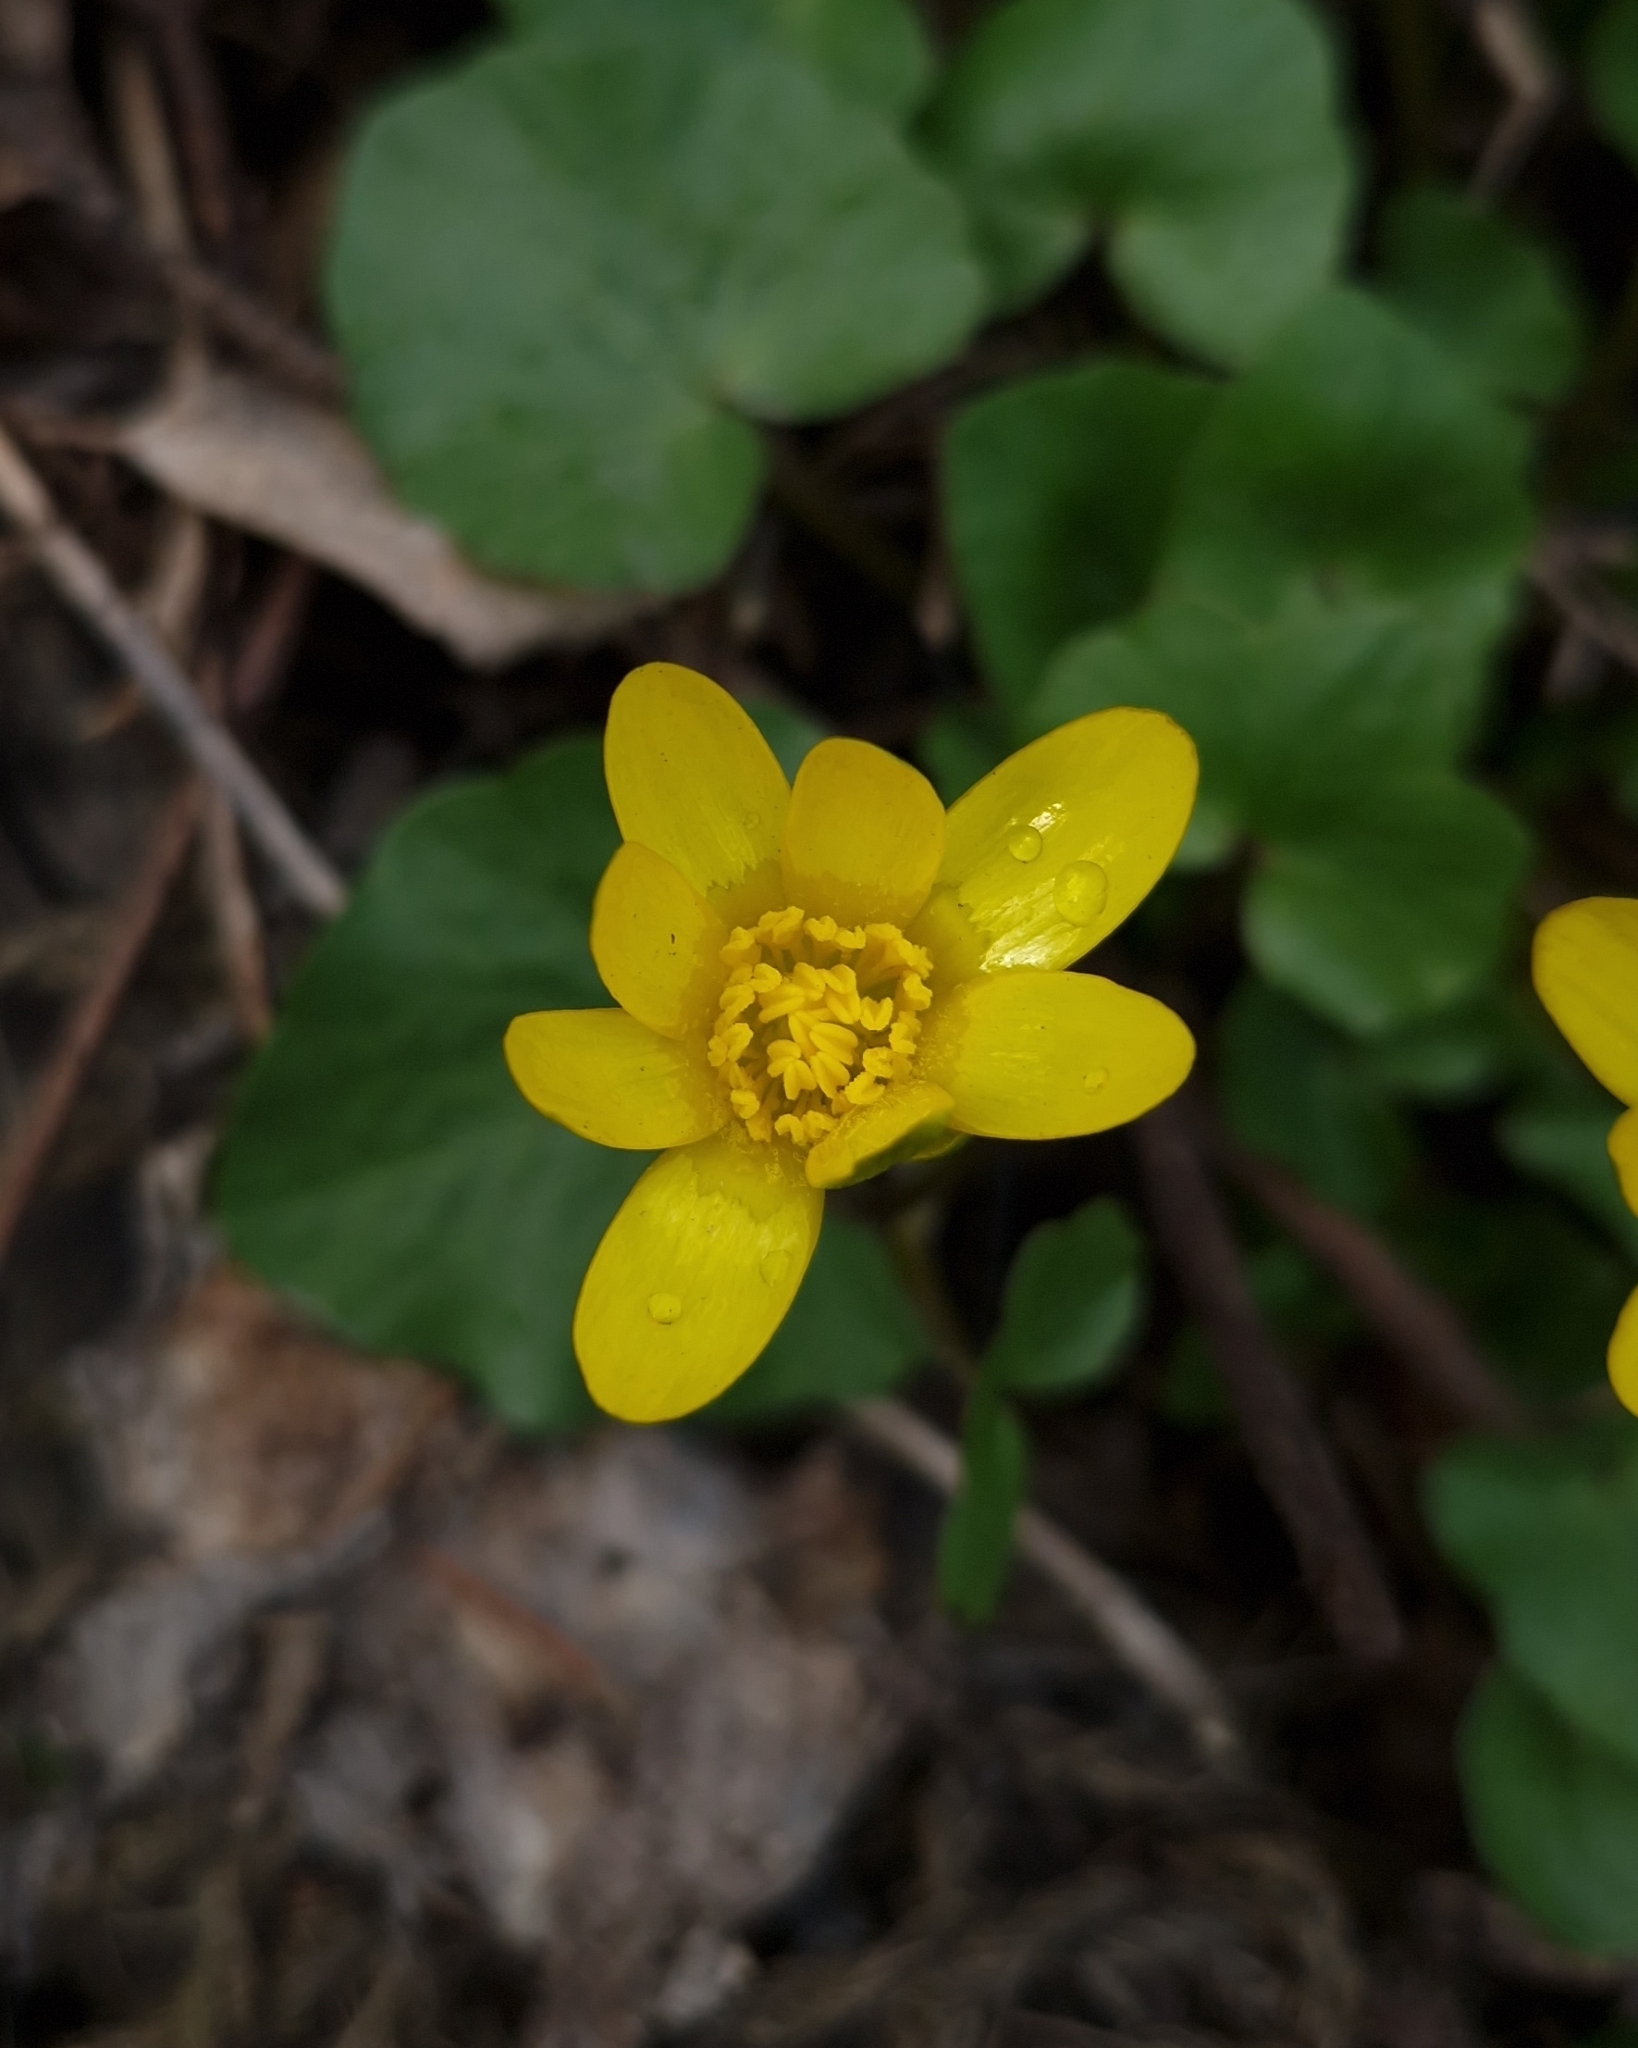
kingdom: Plantae
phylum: Tracheophyta
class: Magnoliopsida
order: Ranunculales
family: Ranunculaceae
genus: Ficaria
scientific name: Ficaria verna
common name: Lesser celandine
